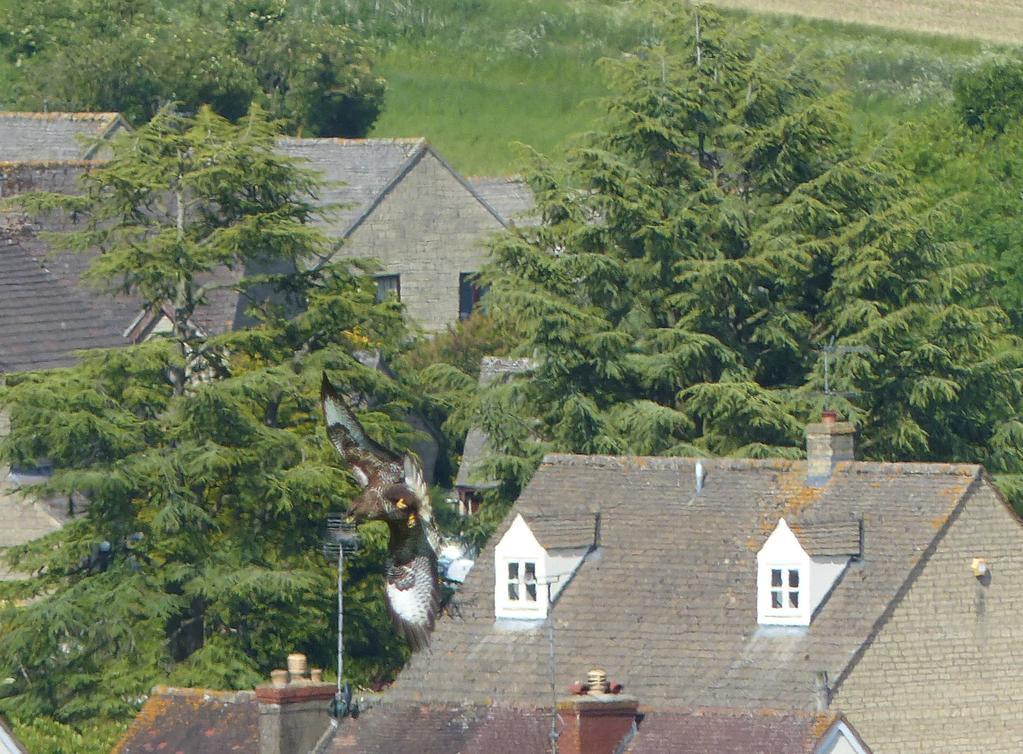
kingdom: Animalia
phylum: Chordata
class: Aves
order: Accipitriformes
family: Accipitridae
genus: Buteo
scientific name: Buteo buteo
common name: Common buzzard
